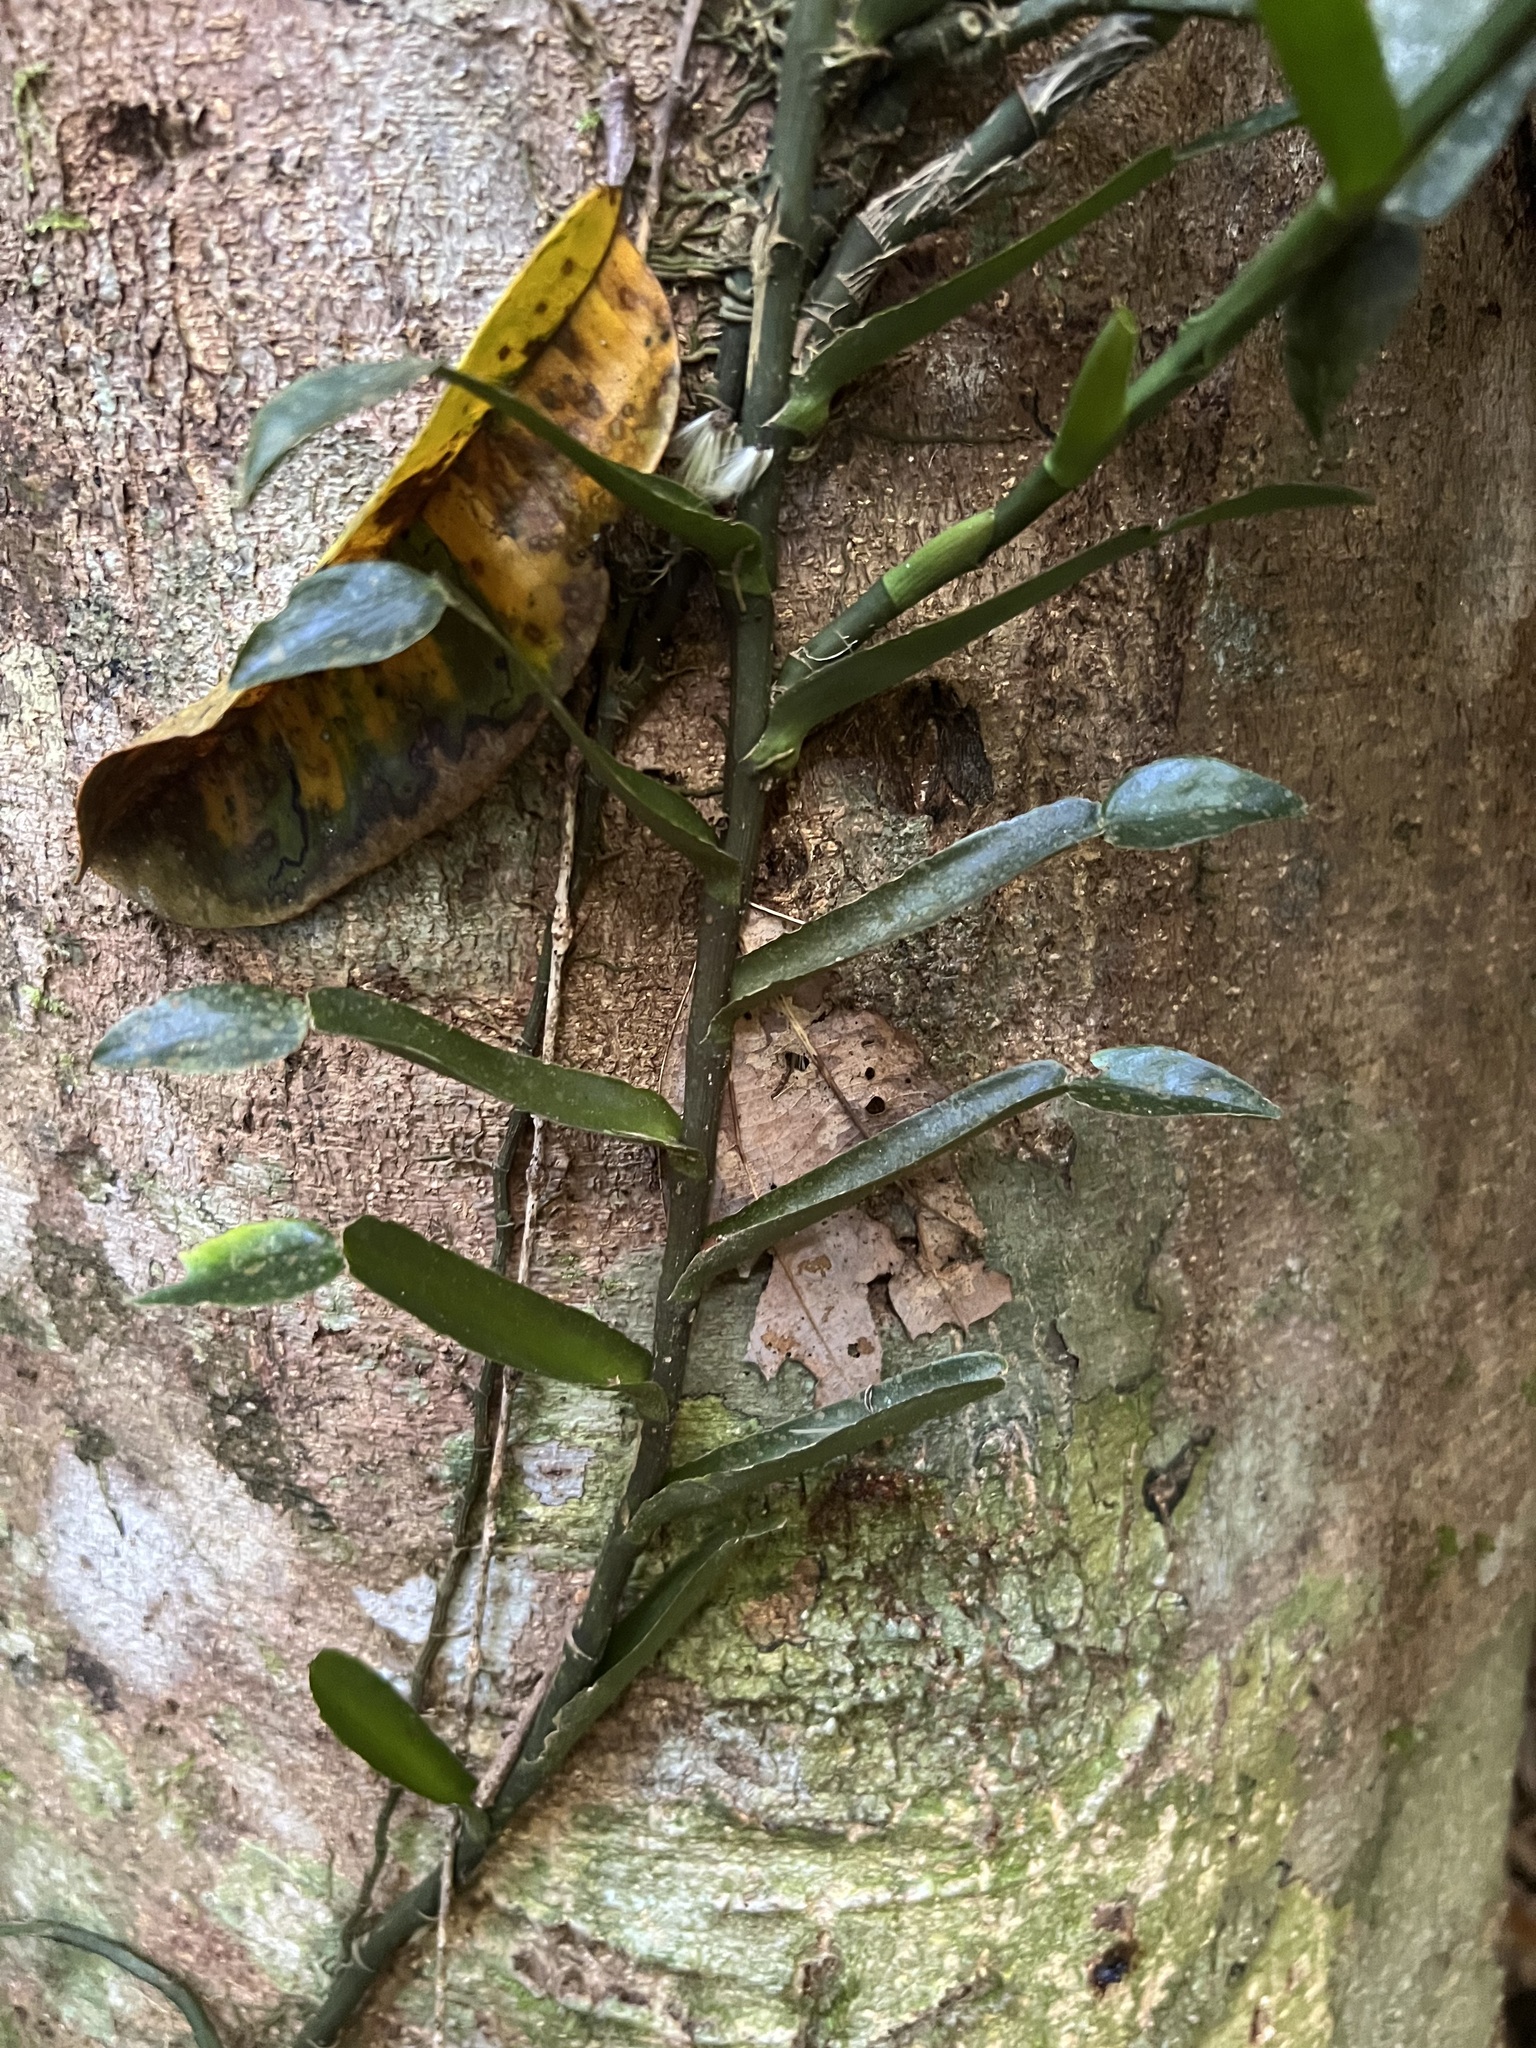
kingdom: Plantae
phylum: Tracheophyta
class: Liliopsida
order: Alismatales
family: Araceae
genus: Pothos
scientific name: Pothos longipes
